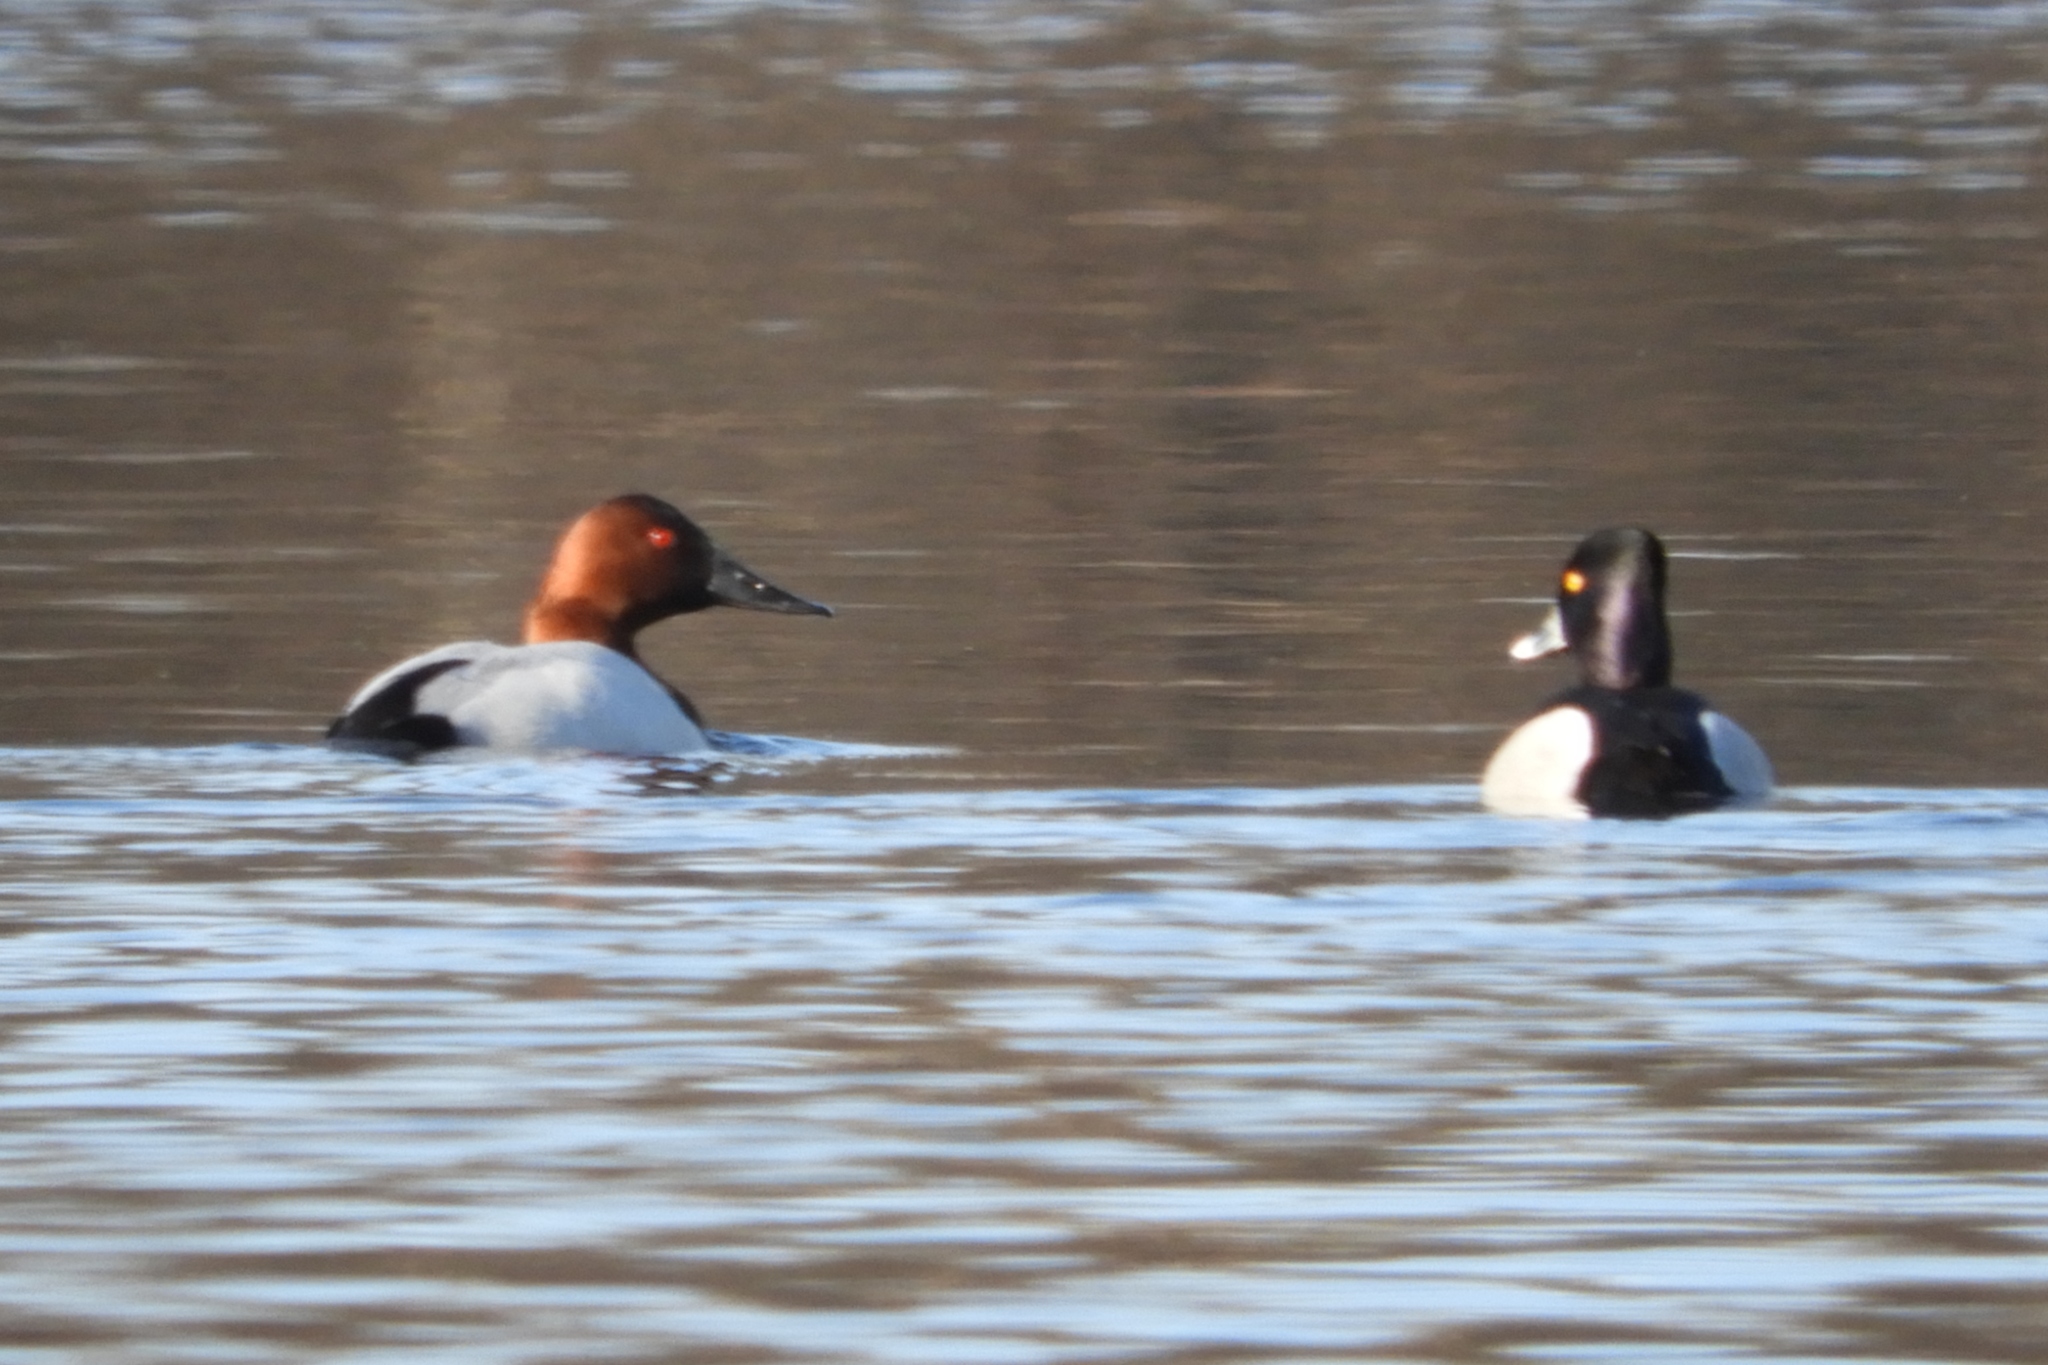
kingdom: Animalia
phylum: Chordata
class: Aves
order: Anseriformes
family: Anatidae
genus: Aythya
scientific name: Aythya valisineria
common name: Canvasback
